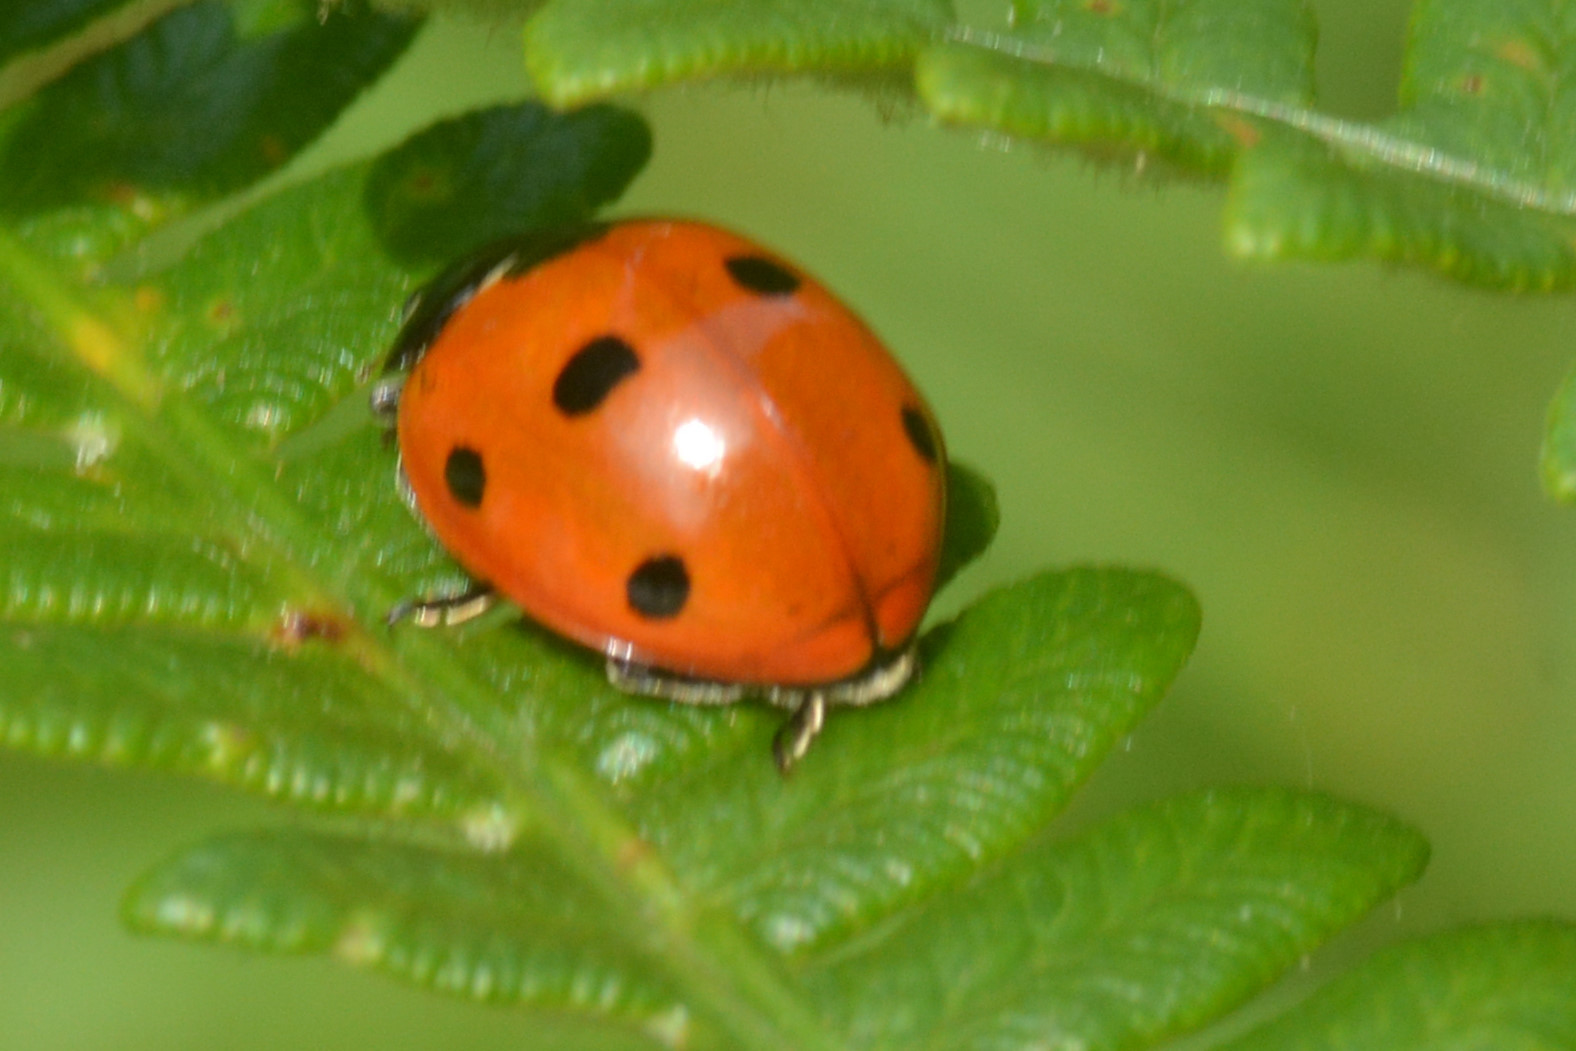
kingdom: Animalia
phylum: Arthropoda
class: Insecta
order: Coleoptera
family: Coccinellidae
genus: Coccinella
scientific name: Coccinella septempunctata
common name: Sevenspotted lady beetle
